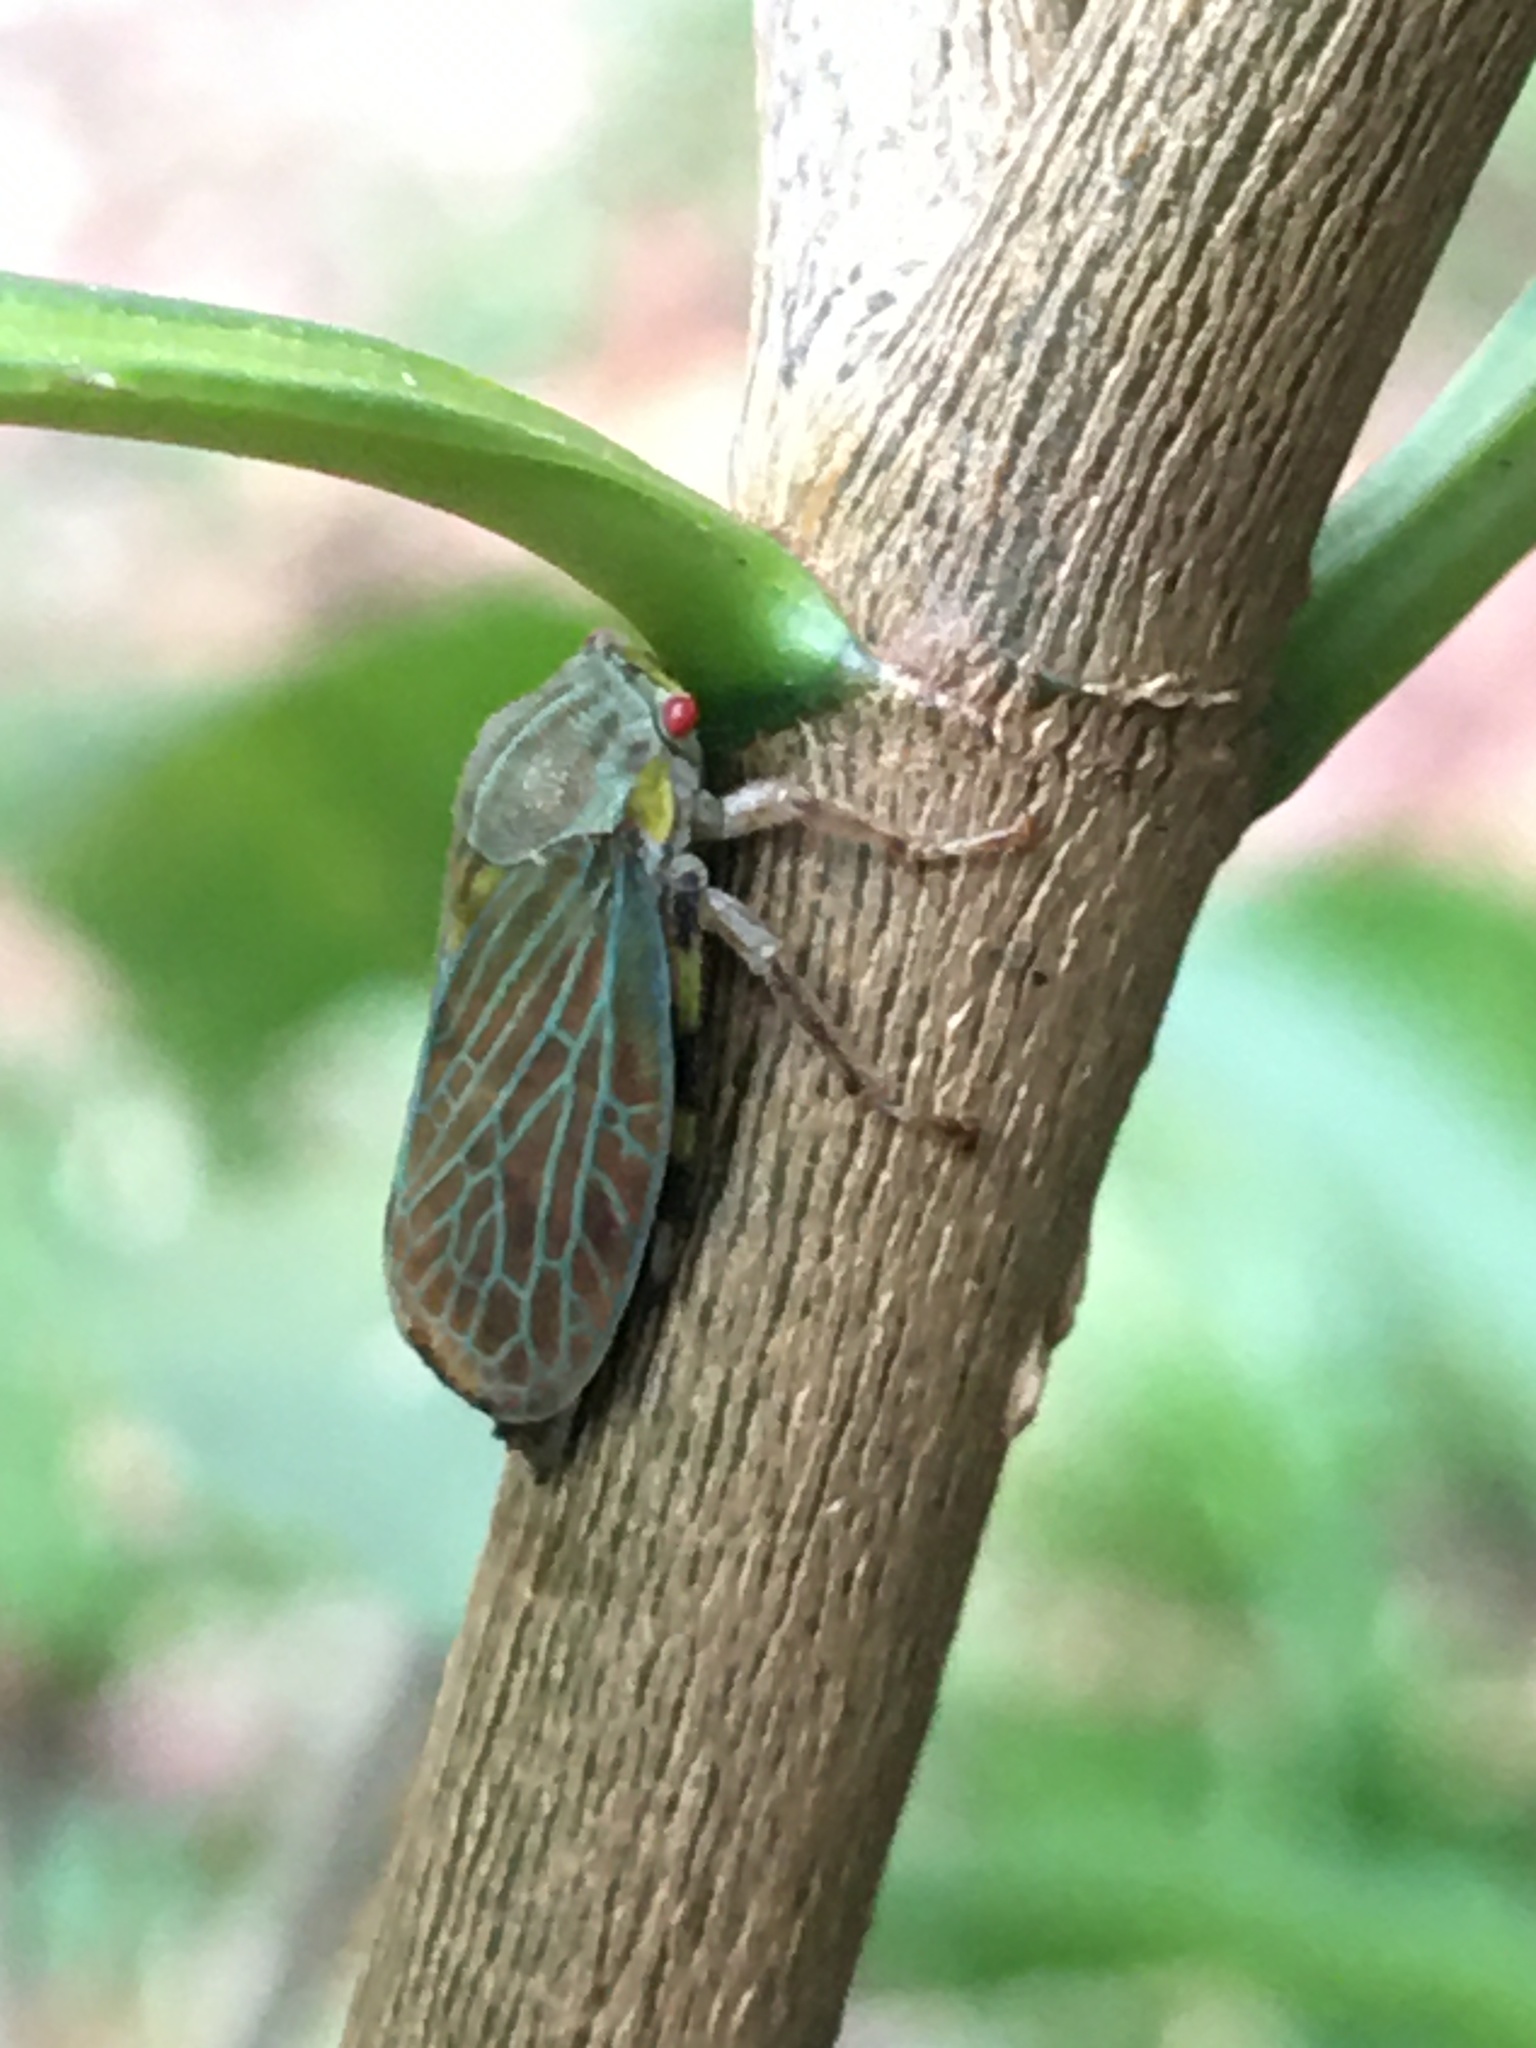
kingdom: Animalia
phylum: Arthropoda
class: Insecta
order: Hemiptera
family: Aetalionidae
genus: Aetalion
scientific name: Aetalion reticulatum
